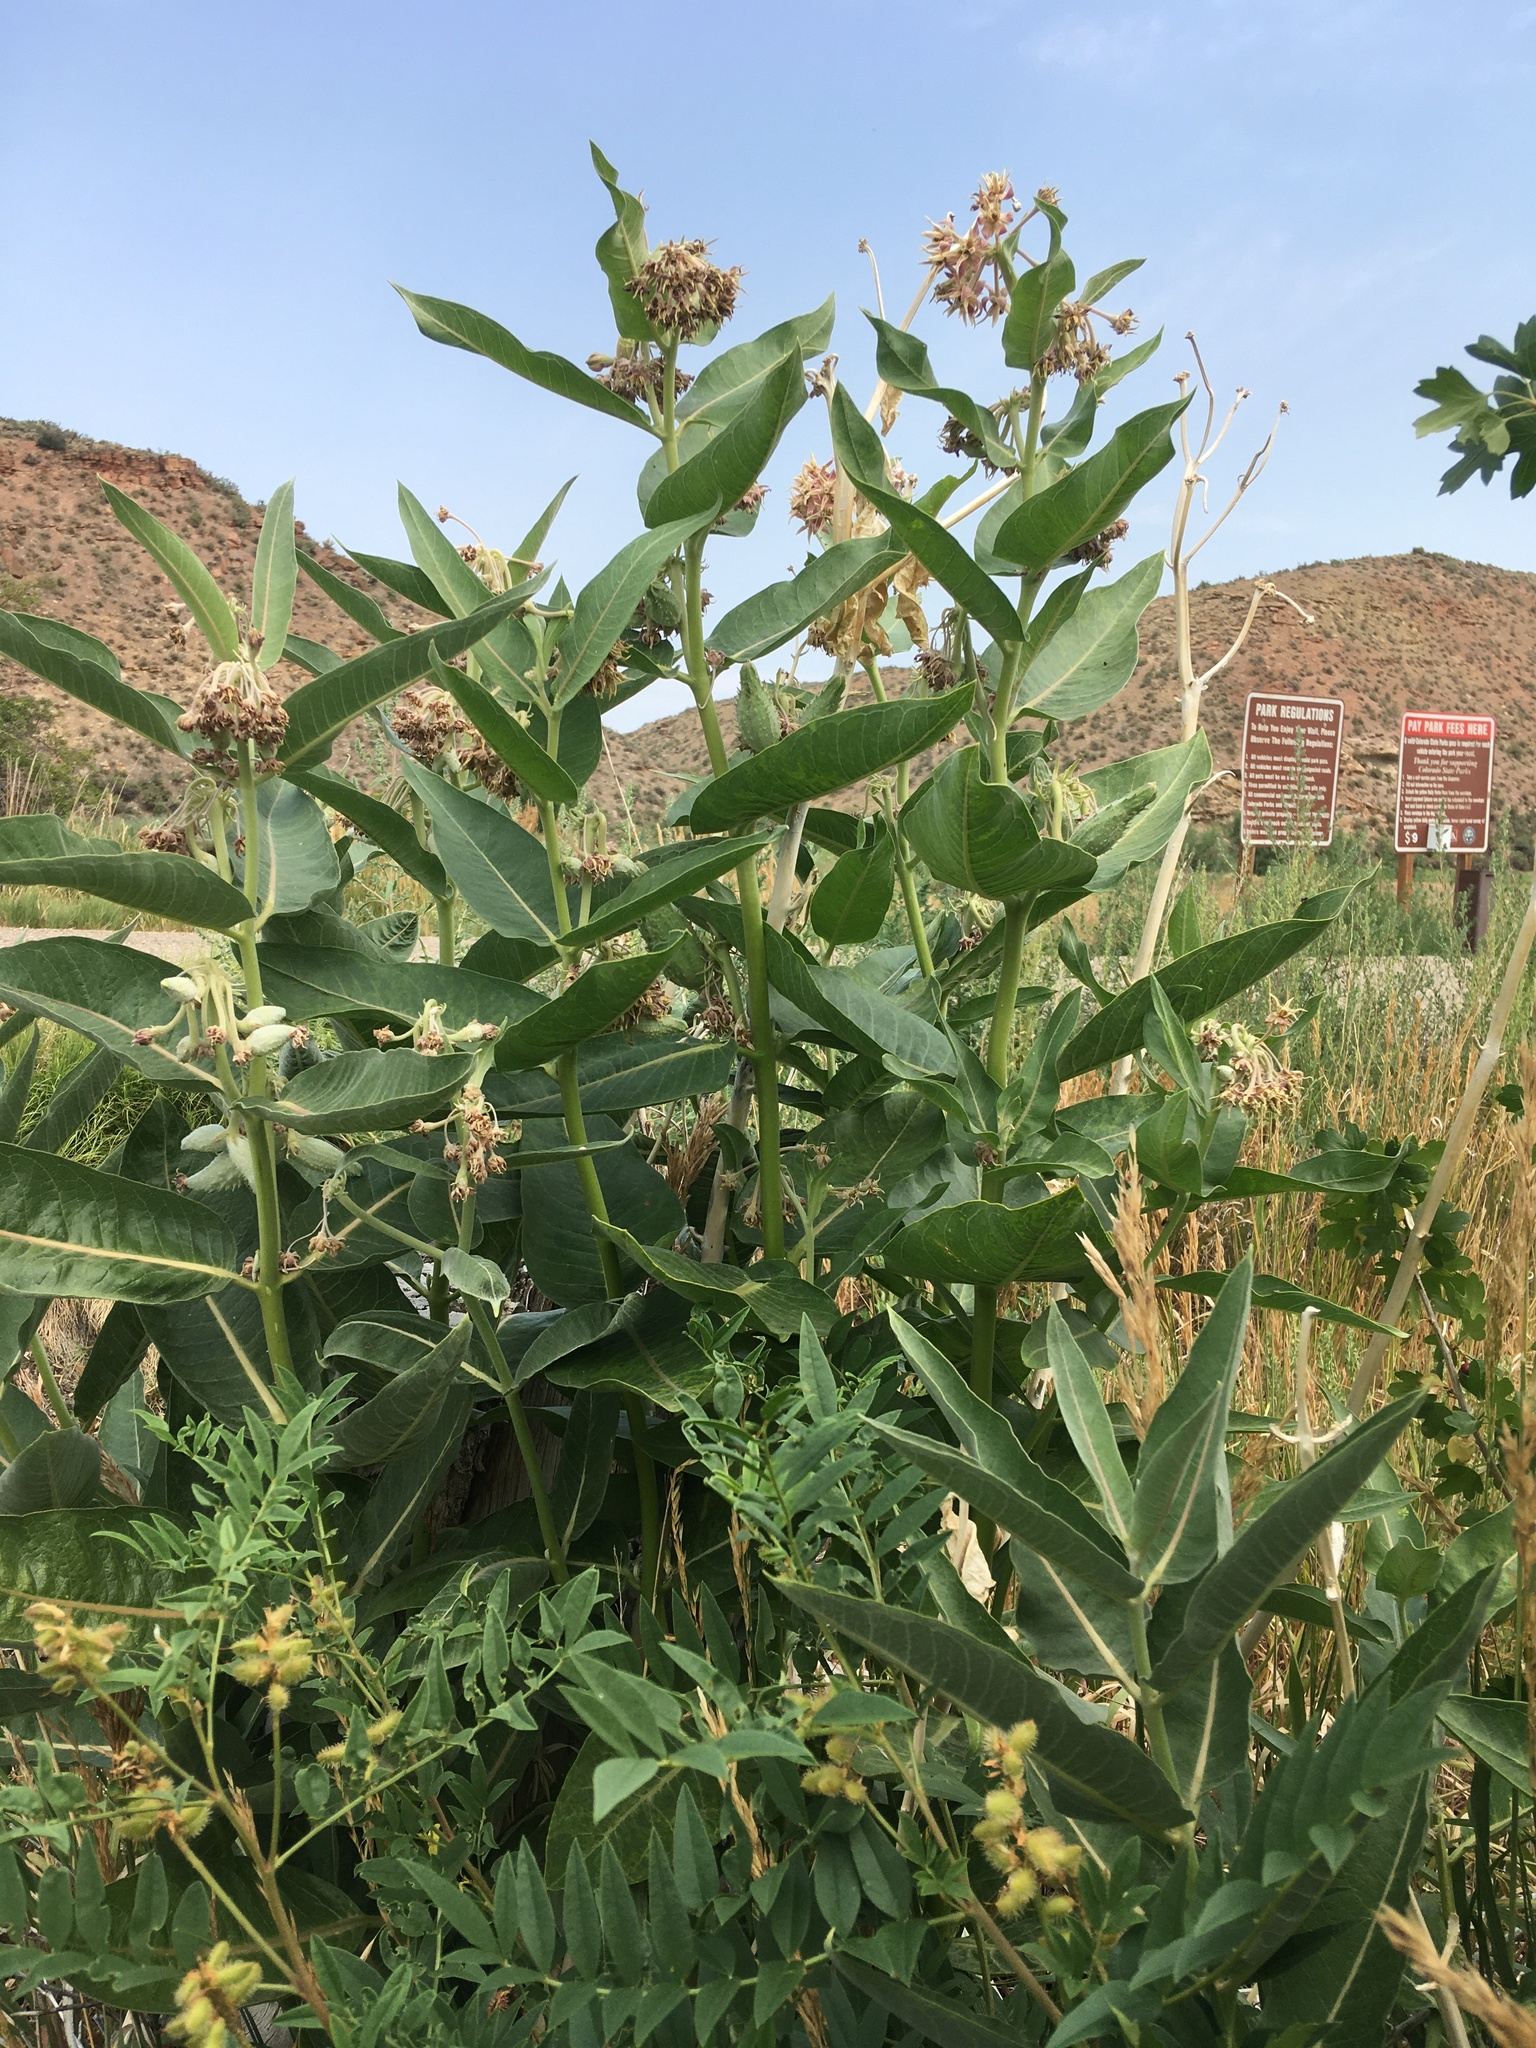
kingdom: Plantae
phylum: Tracheophyta
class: Magnoliopsida
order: Gentianales
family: Apocynaceae
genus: Asclepias
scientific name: Asclepias speciosa
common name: Showy milkweed
